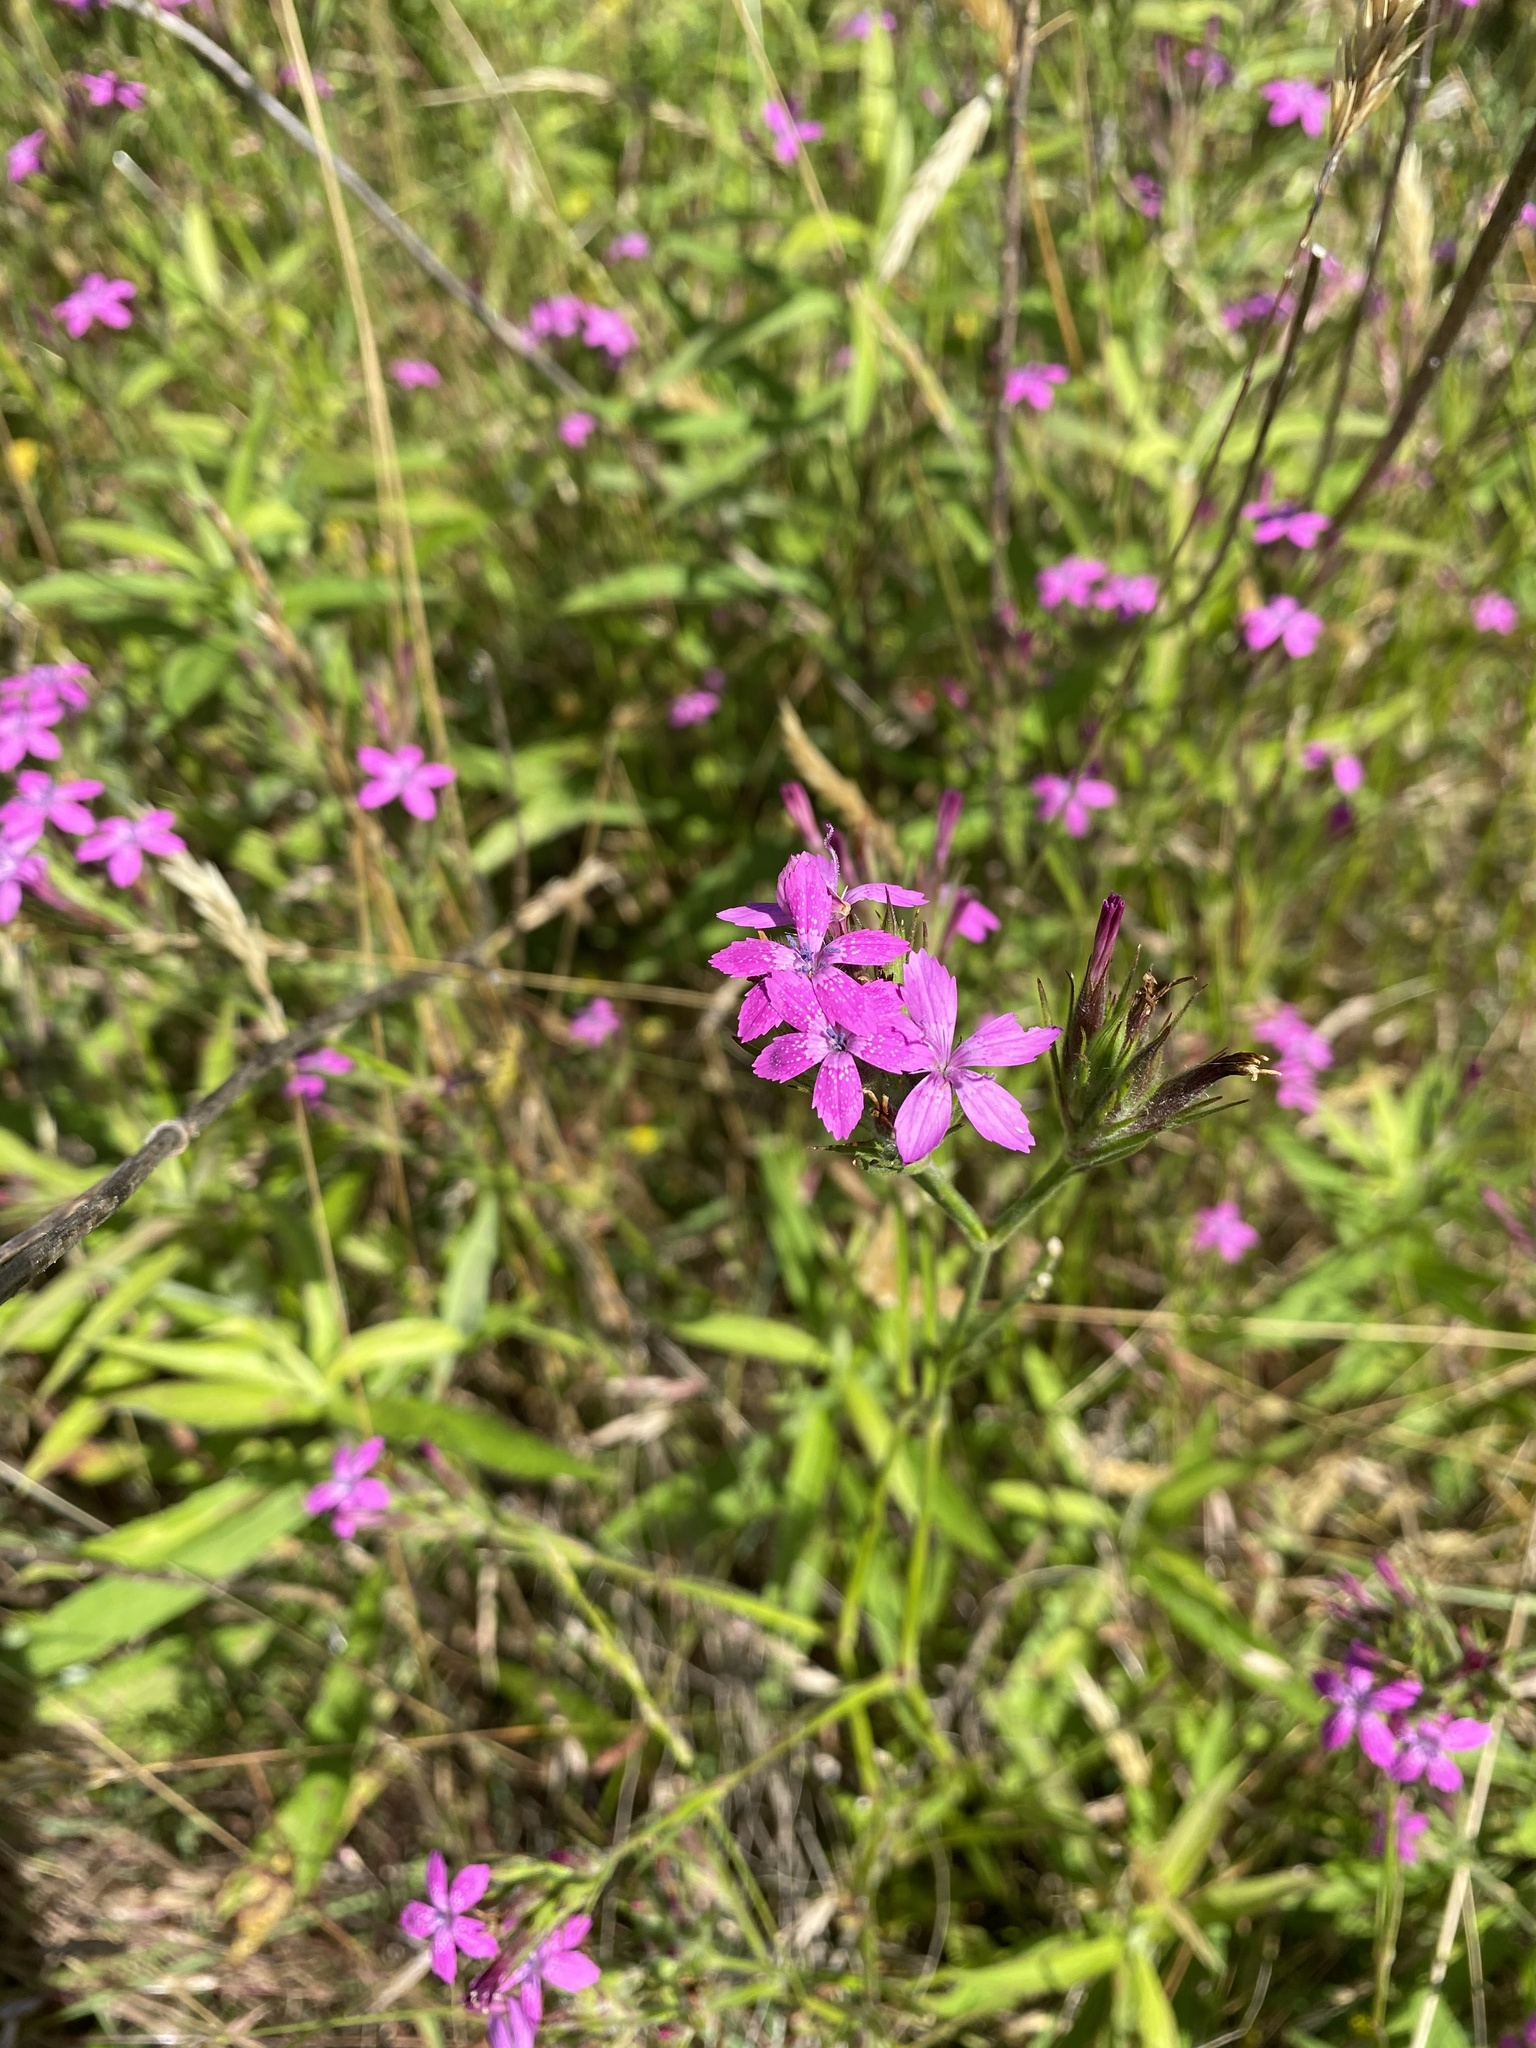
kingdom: Plantae
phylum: Tracheophyta
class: Magnoliopsida
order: Caryophyllales
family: Caryophyllaceae
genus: Dianthus
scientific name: Dianthus armeria
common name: Deptford pink
